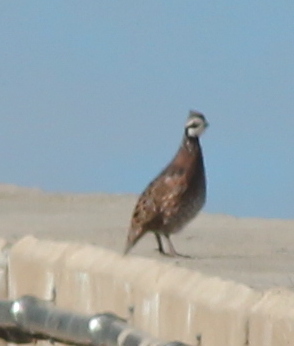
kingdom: Animalia
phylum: Chordata
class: Aves
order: Galliformes
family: Odontophoridae
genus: Colinus
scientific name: Colinus virginianus
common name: Northern bobwhite
